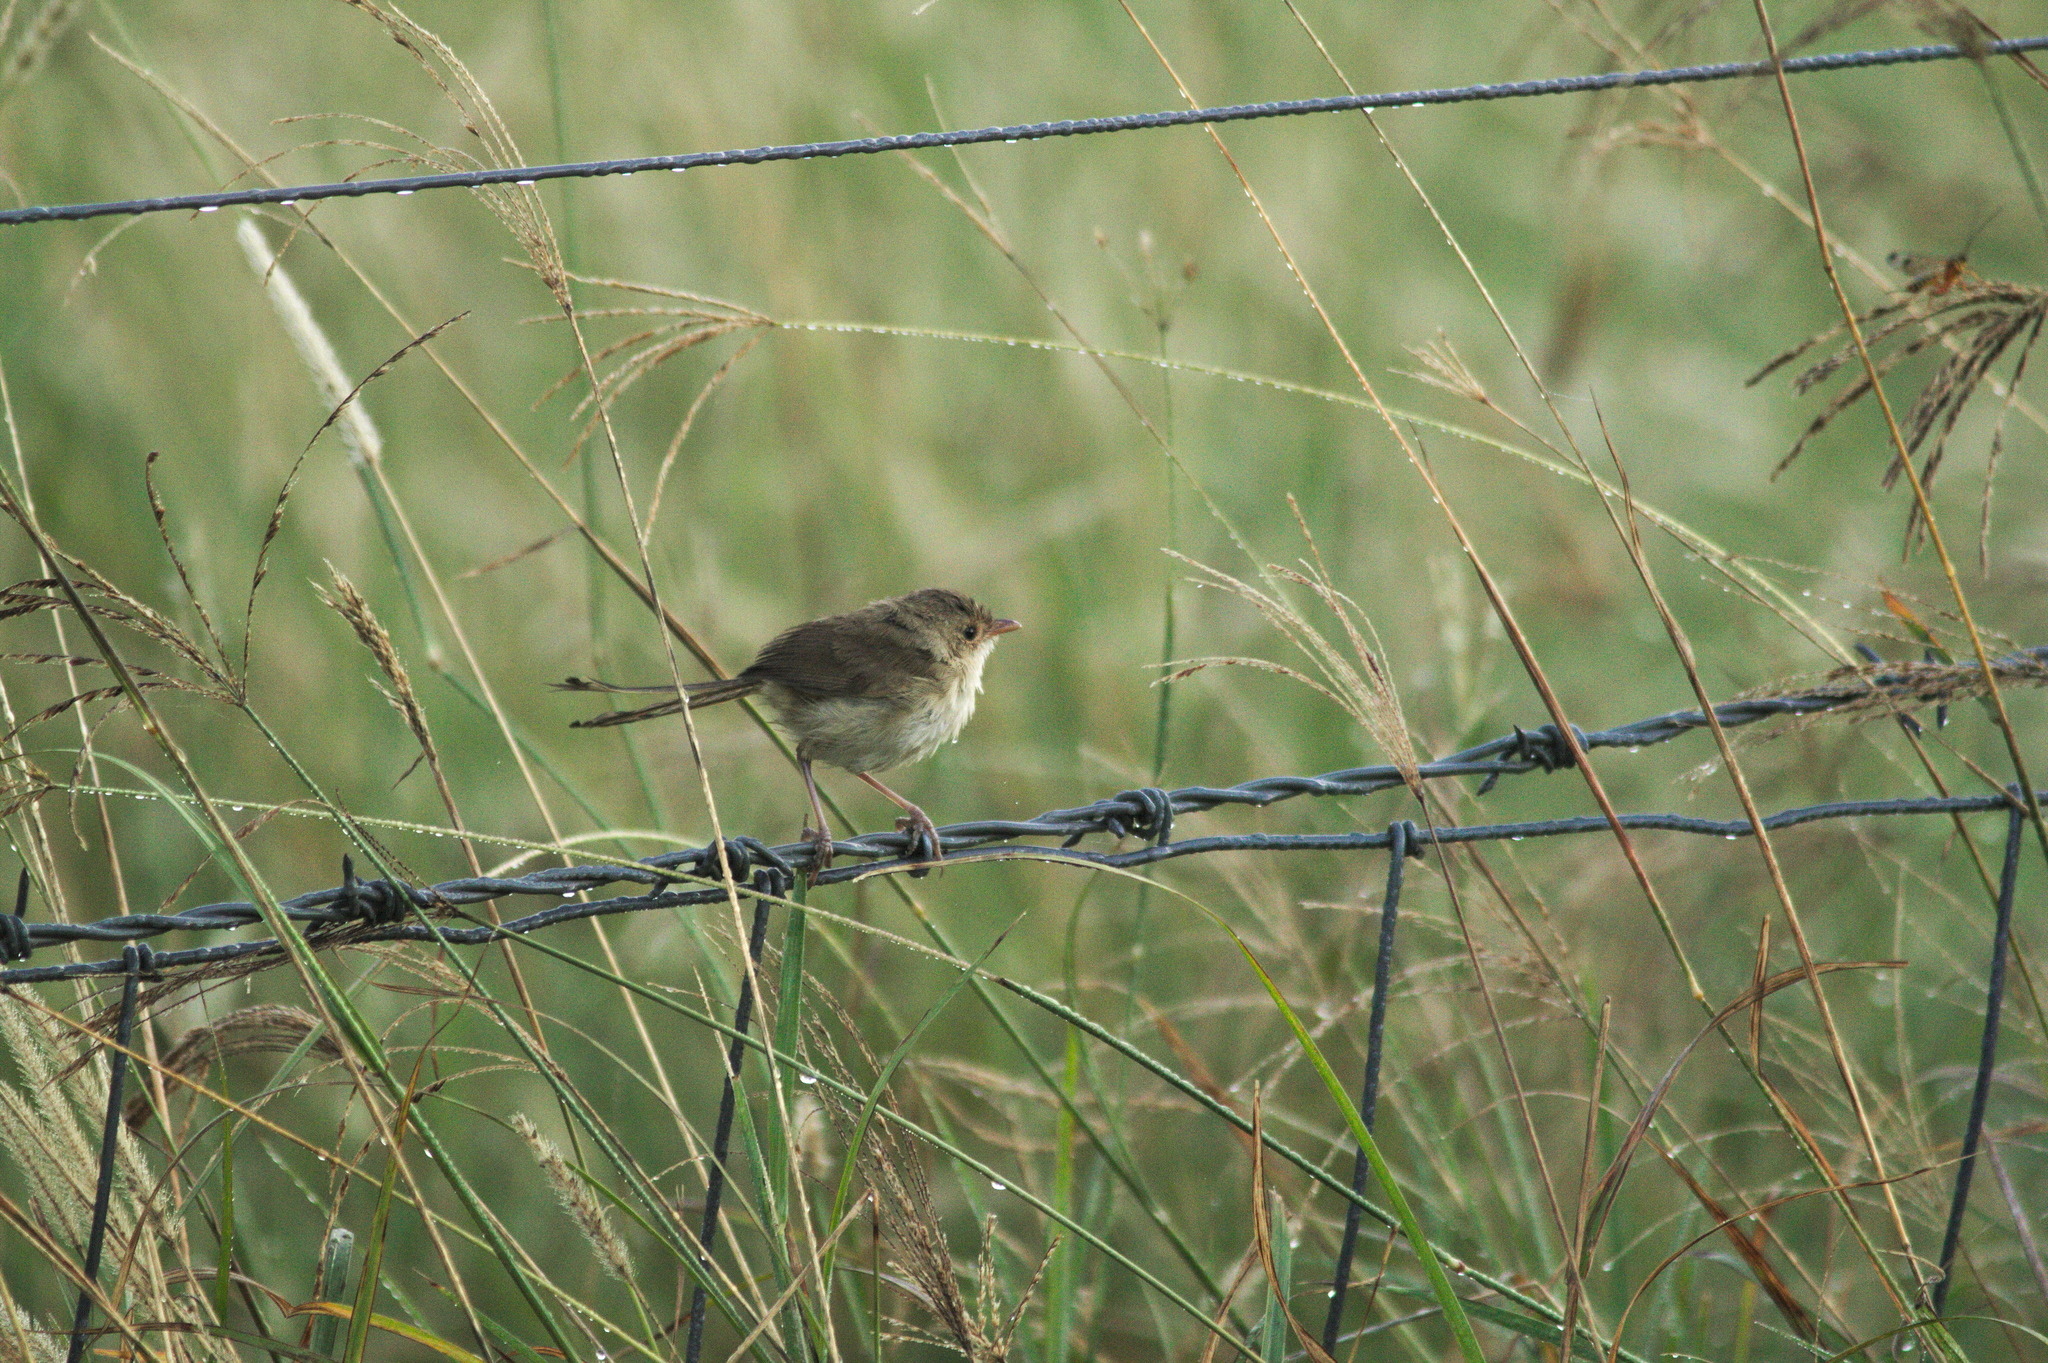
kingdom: Animalia
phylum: Chordata
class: Aves
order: Passeriformes
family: Maluridae
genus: Malurus
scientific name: Malurus melanocephalus
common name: Red-backed fairywren
